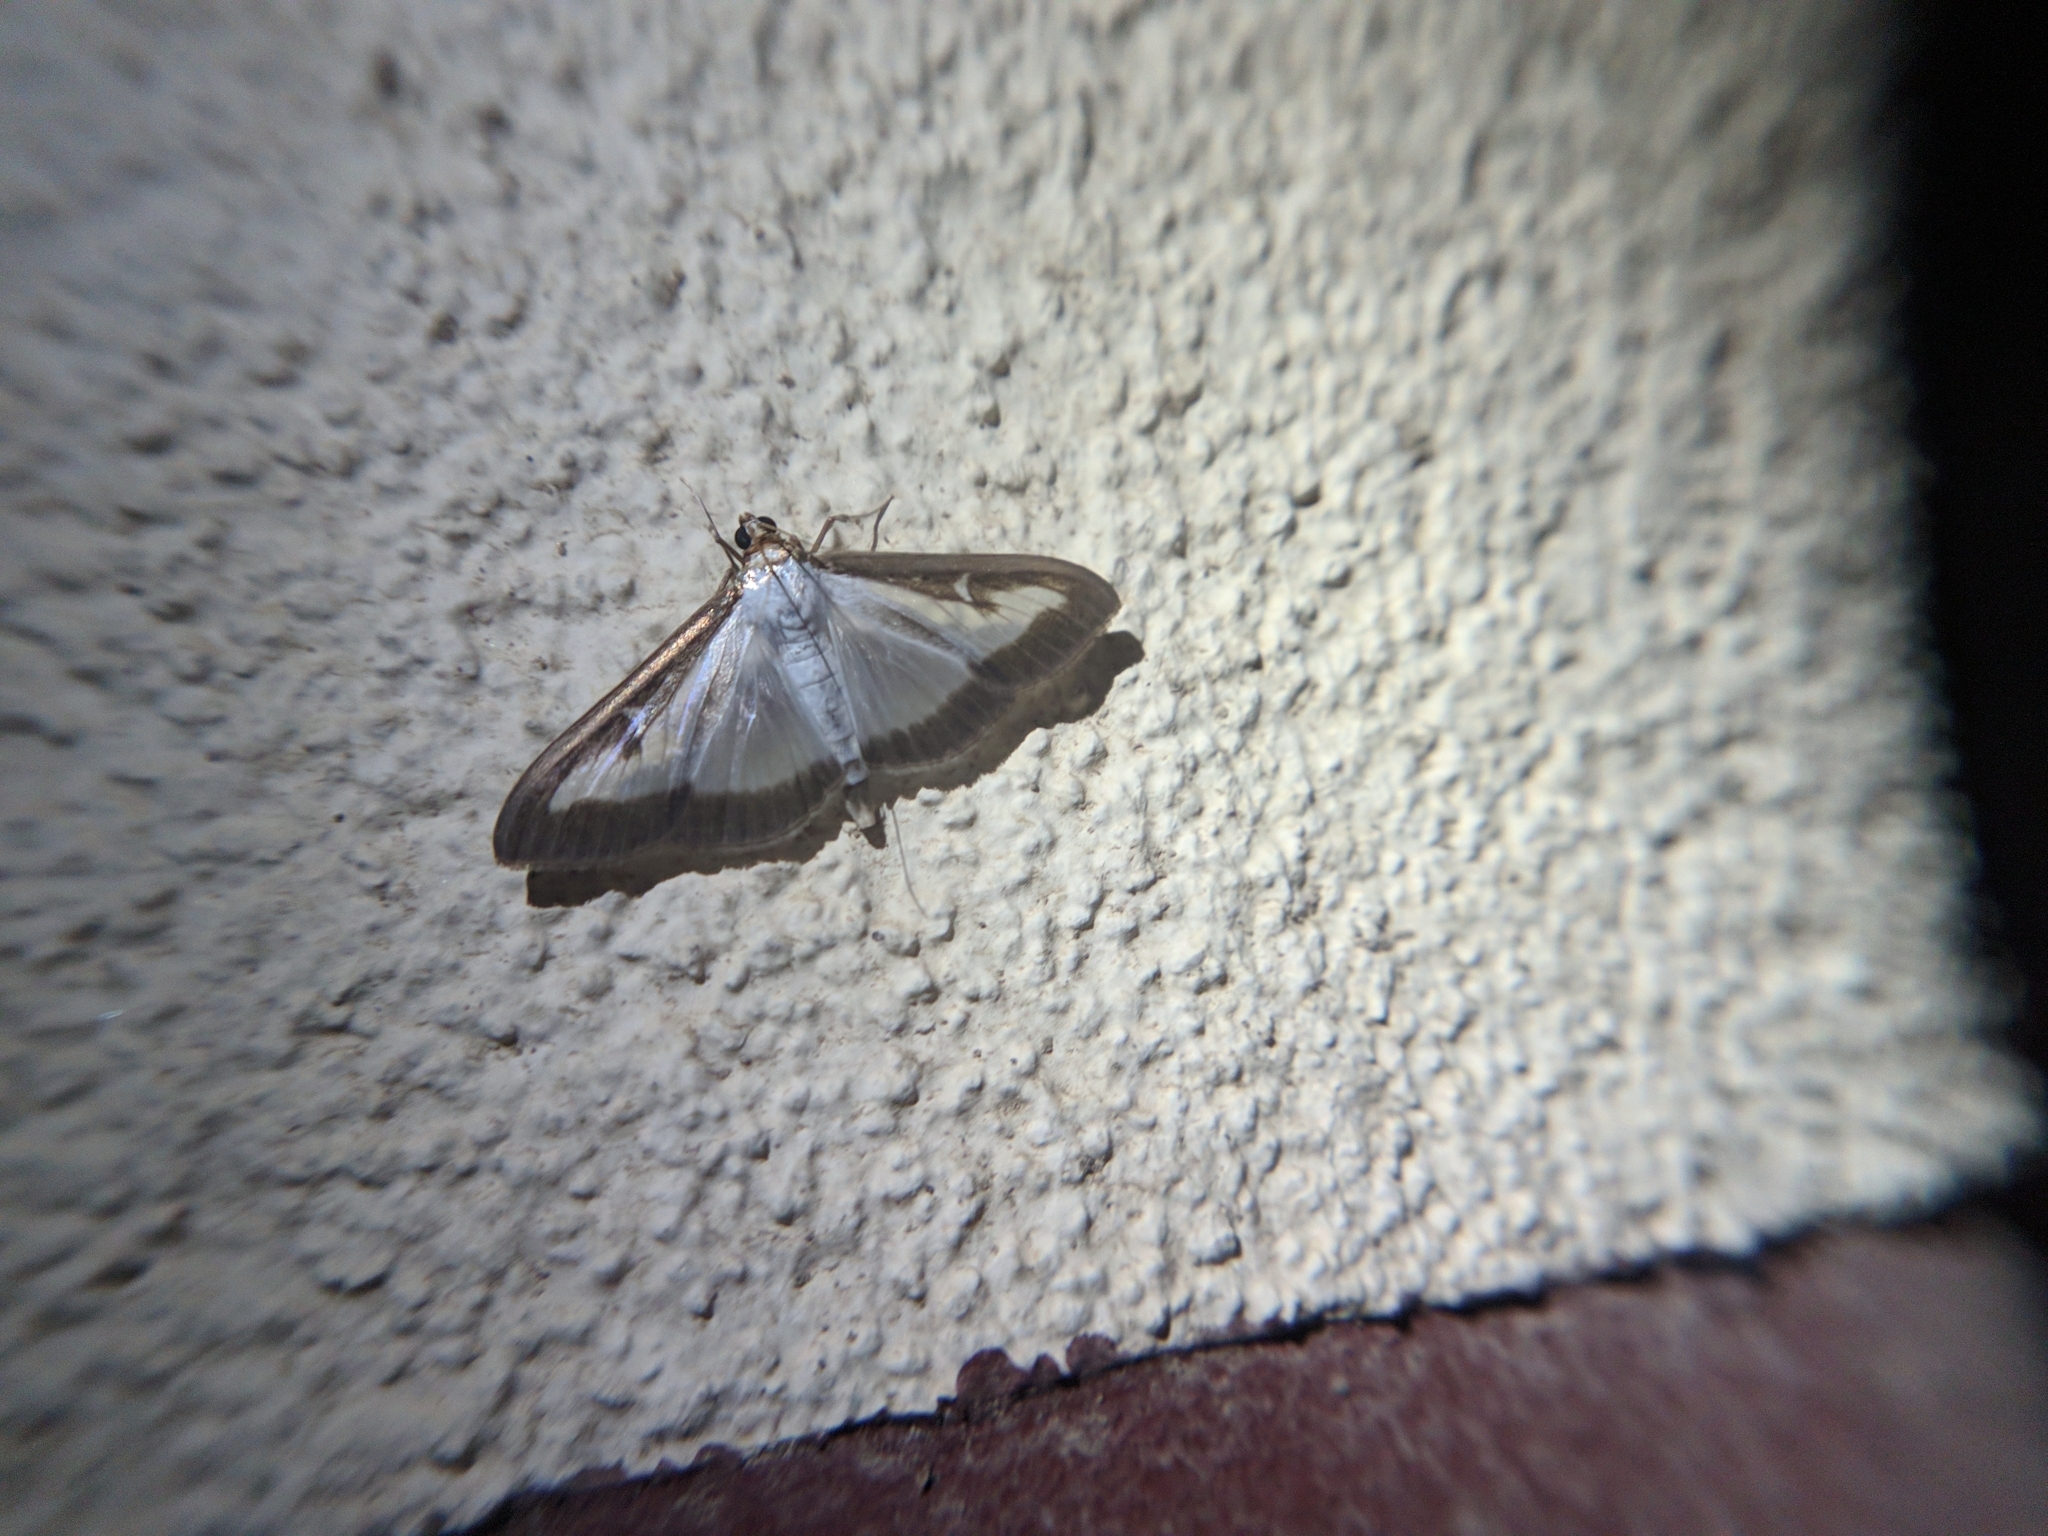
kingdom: Animalia
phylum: Arthropoda
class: Insecta
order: Lepidoptera
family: Crambidae
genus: Cydalima
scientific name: Cydalima perspectalis
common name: Box tree moth
